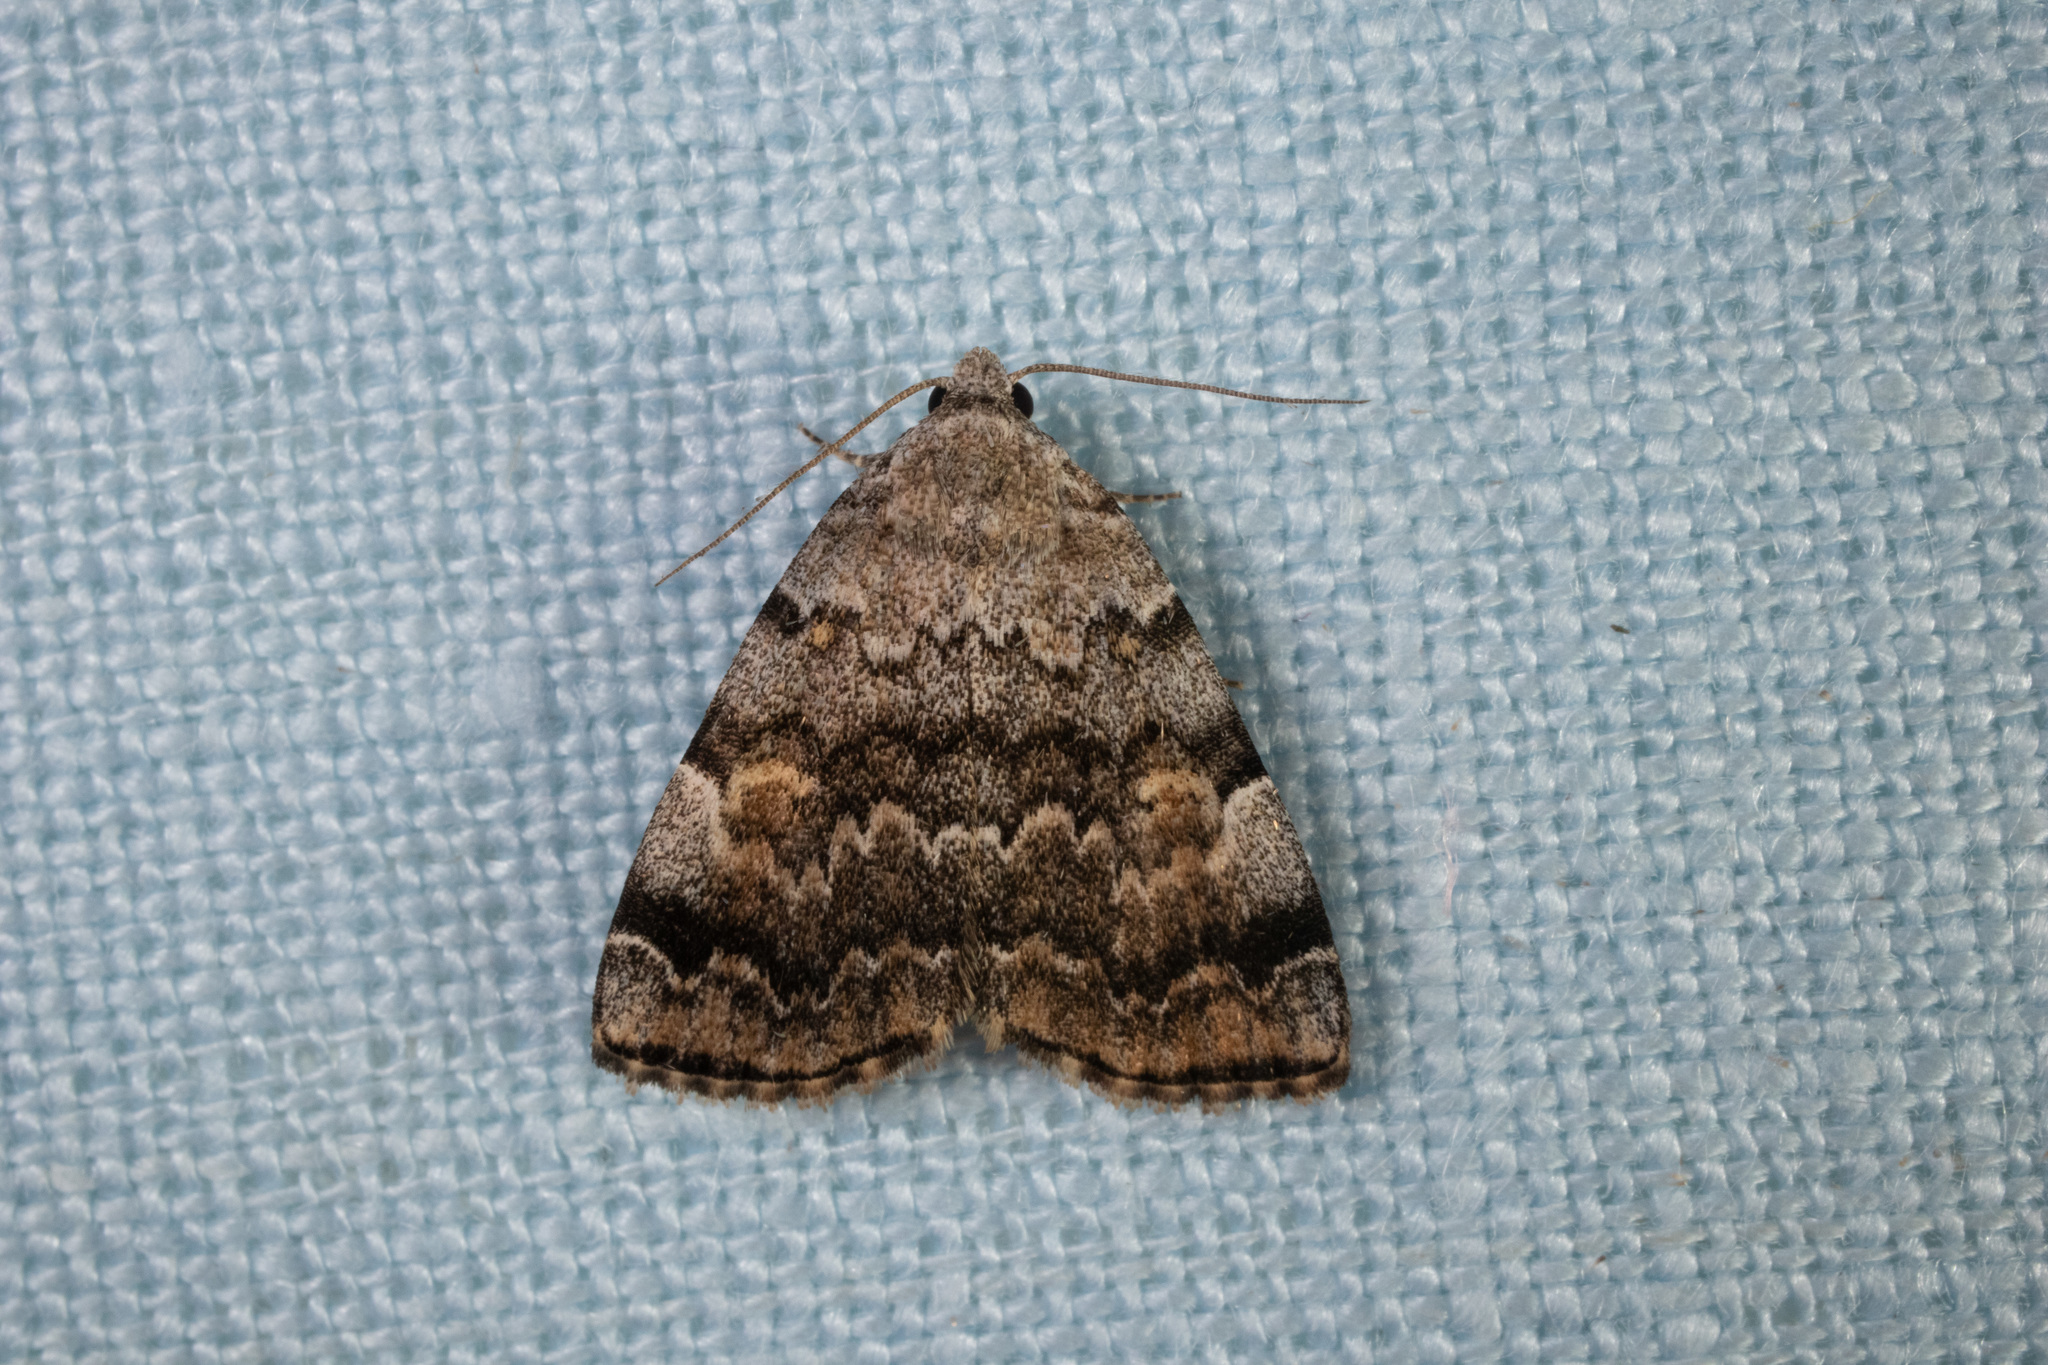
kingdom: Animalia
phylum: Arthropoda
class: Insecta
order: Lepidoptera
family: Erebidae
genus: Idia
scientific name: Idia americalis
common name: American idia moth
